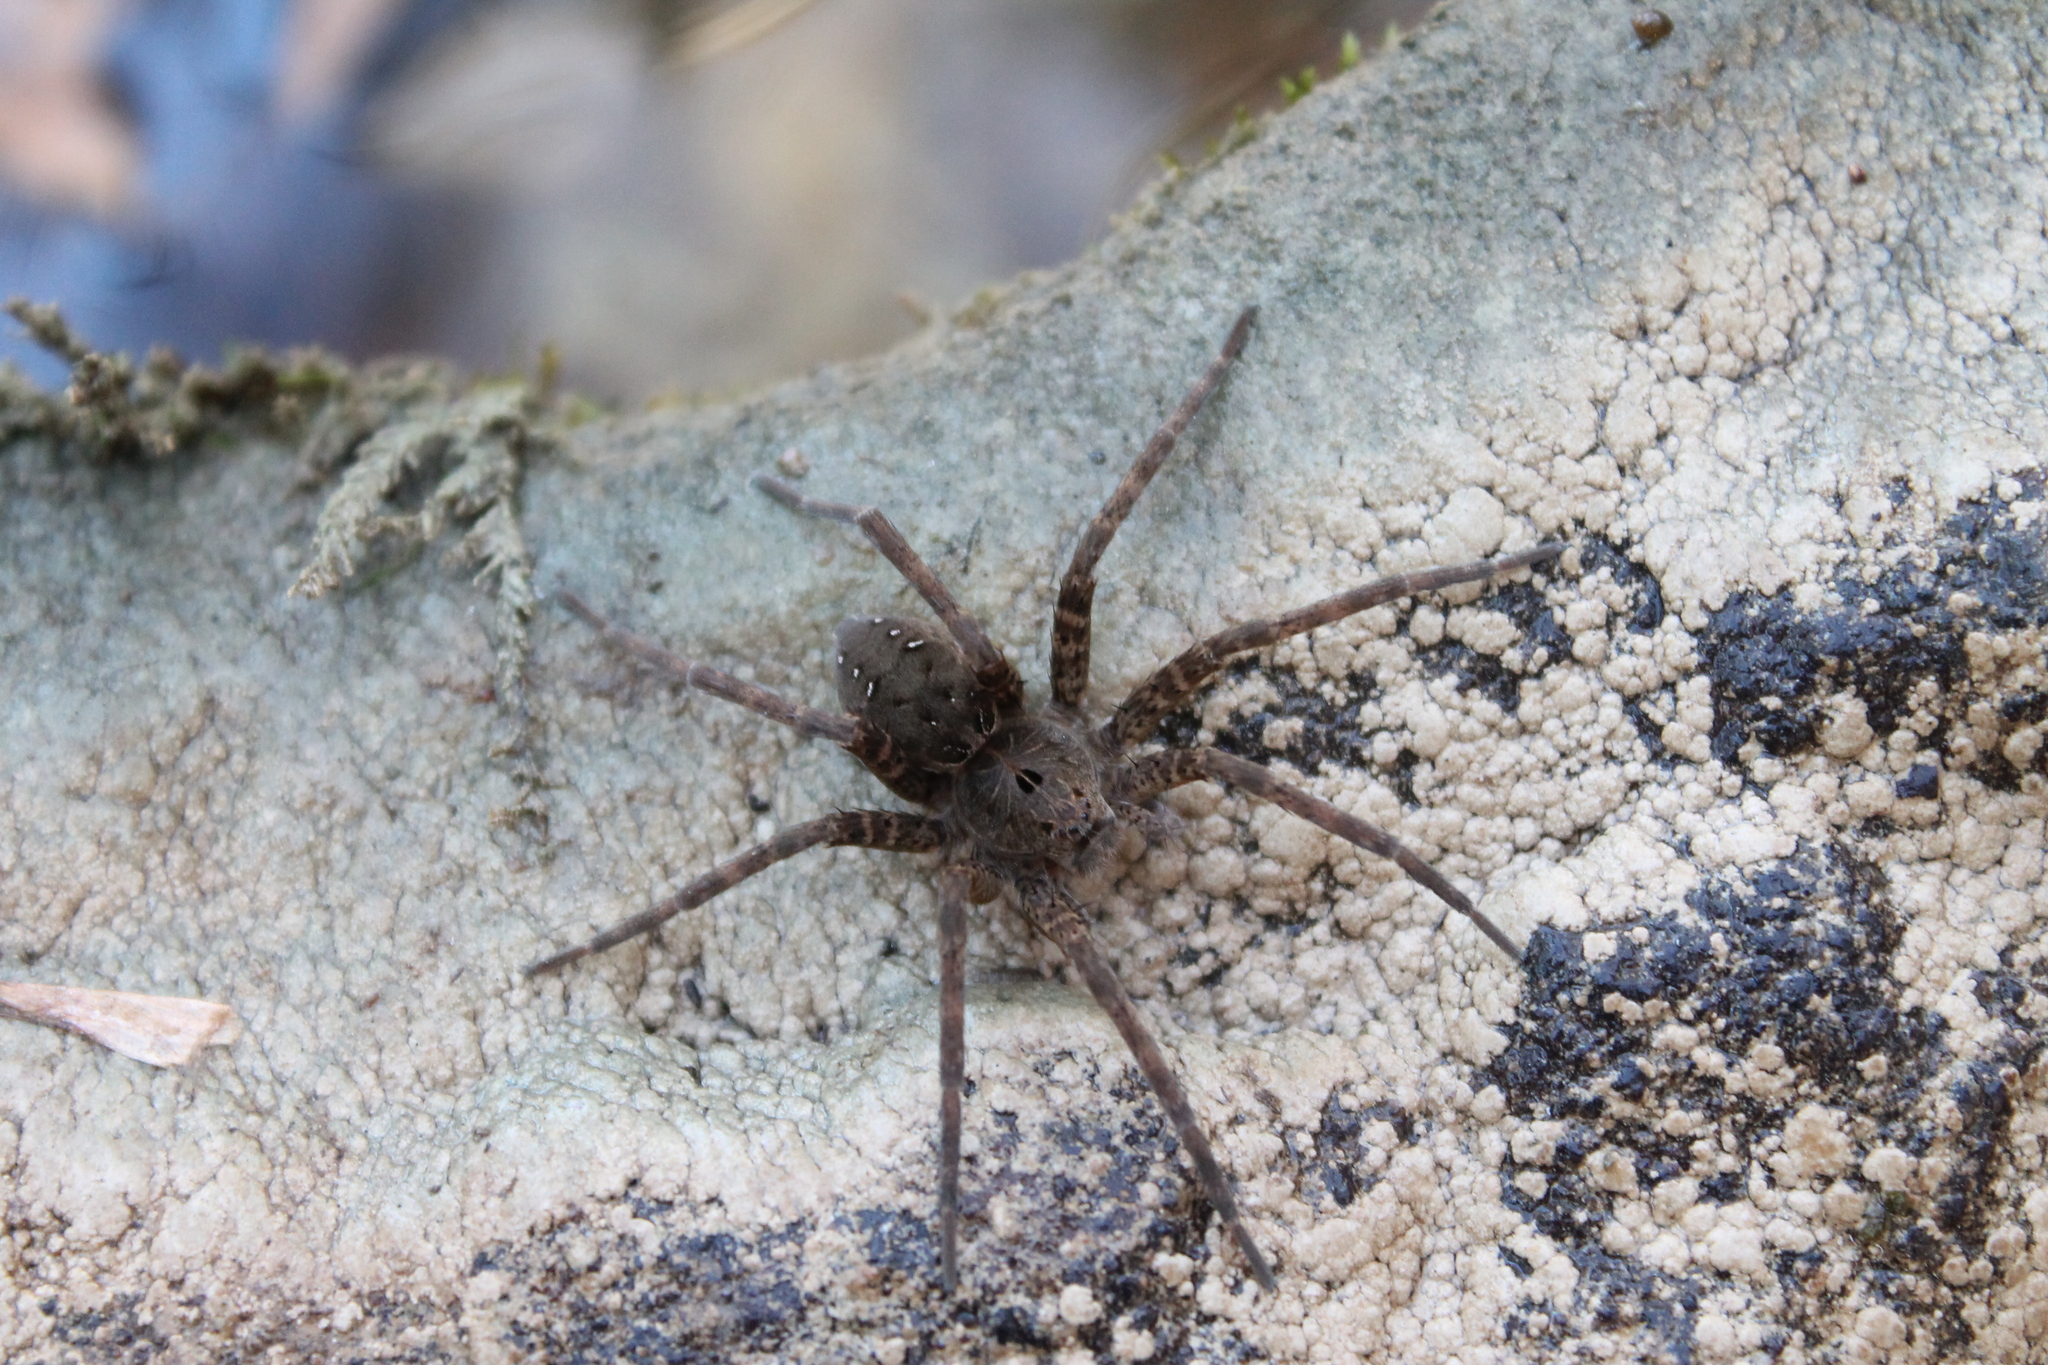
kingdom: Animalia
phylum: Arthropoda
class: Arachnida
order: Araneae
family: Pisauridae
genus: Dolomedes
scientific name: Dolomedes vittatus
